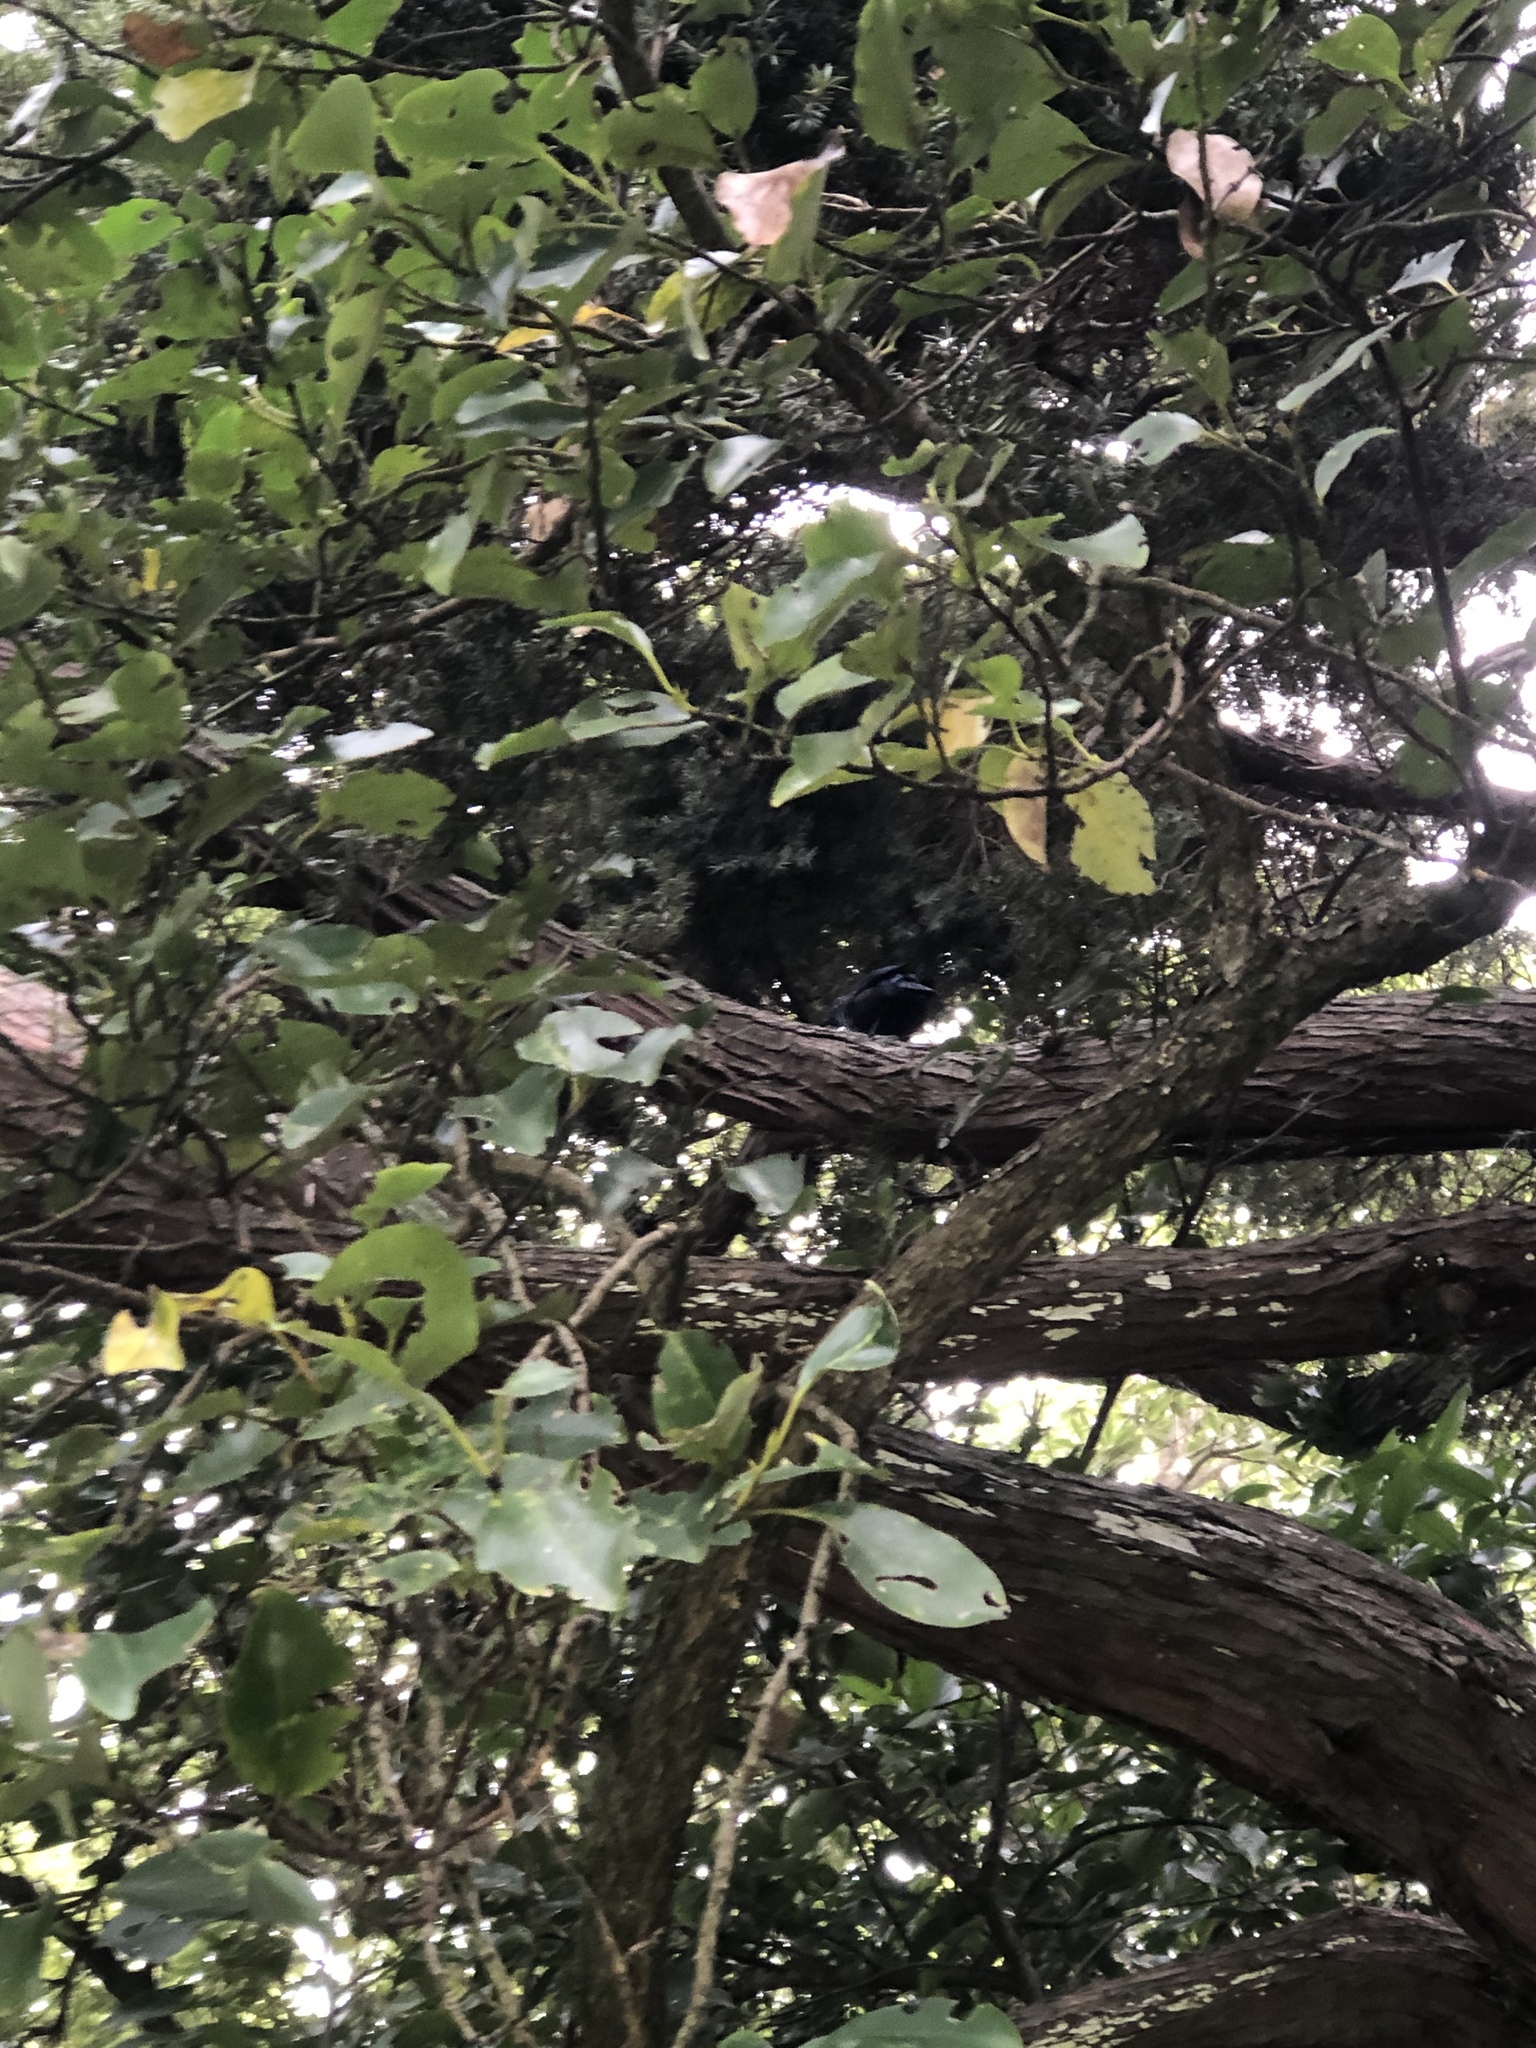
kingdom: Animalia
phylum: Chordata
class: Aves
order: Passeriformes
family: Meliphagidae
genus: Prosthemadera
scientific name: Prosthemadera novaeseelandiae
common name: Tui
